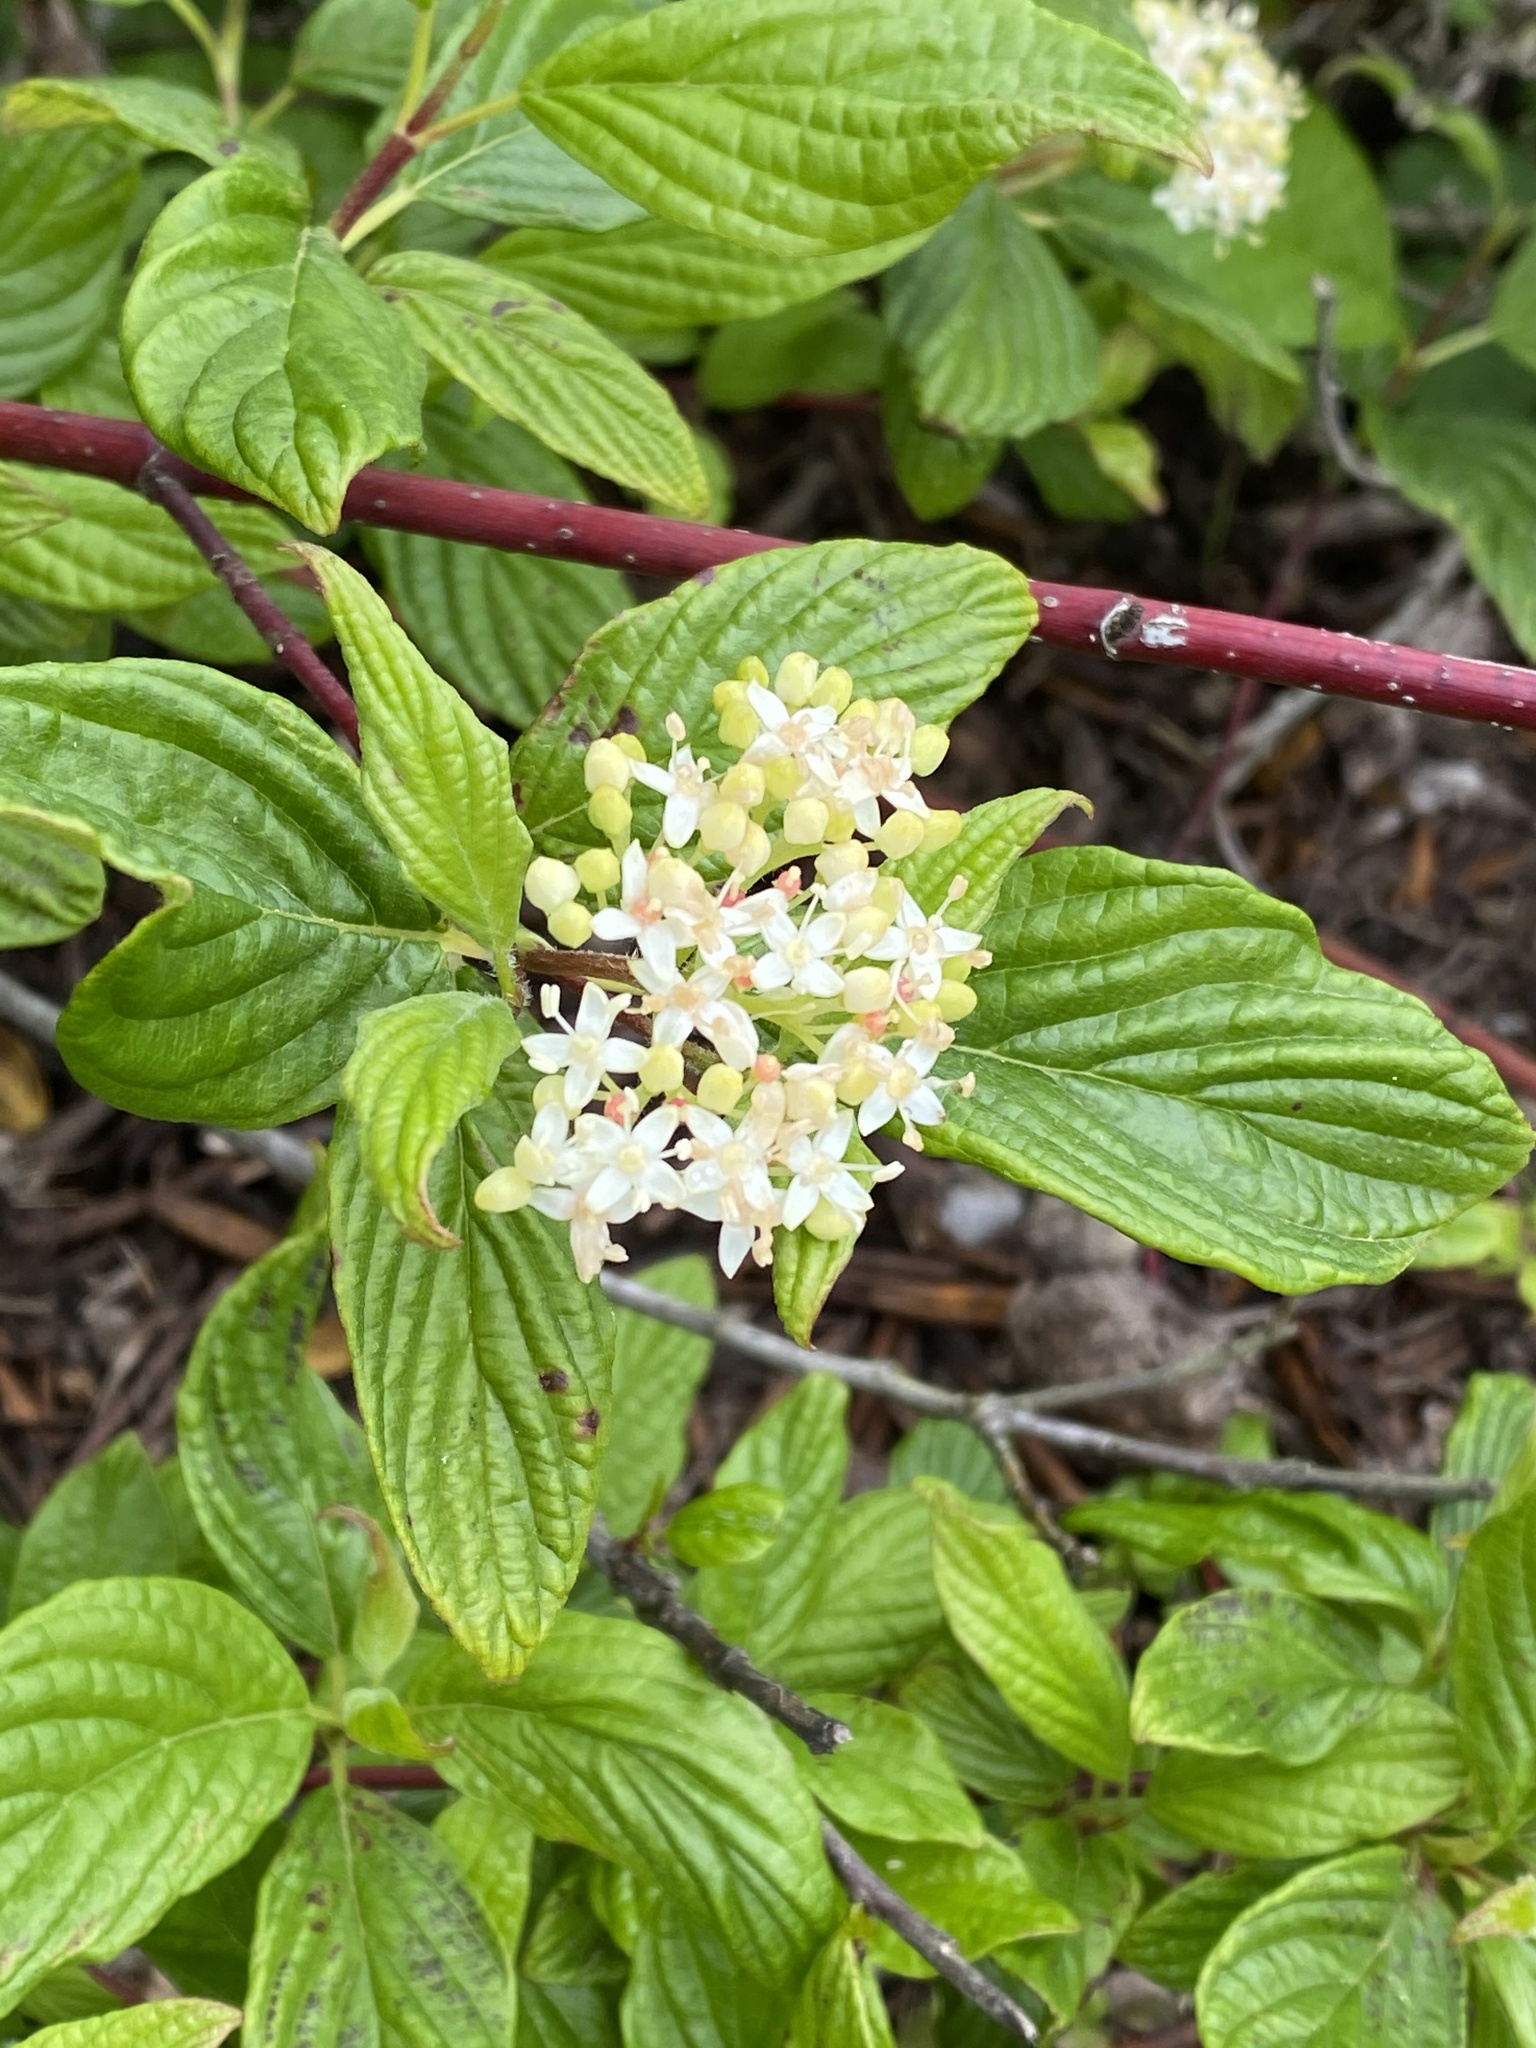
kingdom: Plantae
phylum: Tracheophyta
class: Magnoliopsida
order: Cornales
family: Cornaceae
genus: Cornus
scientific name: Cornus sericea
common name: Red-osier dogwood
